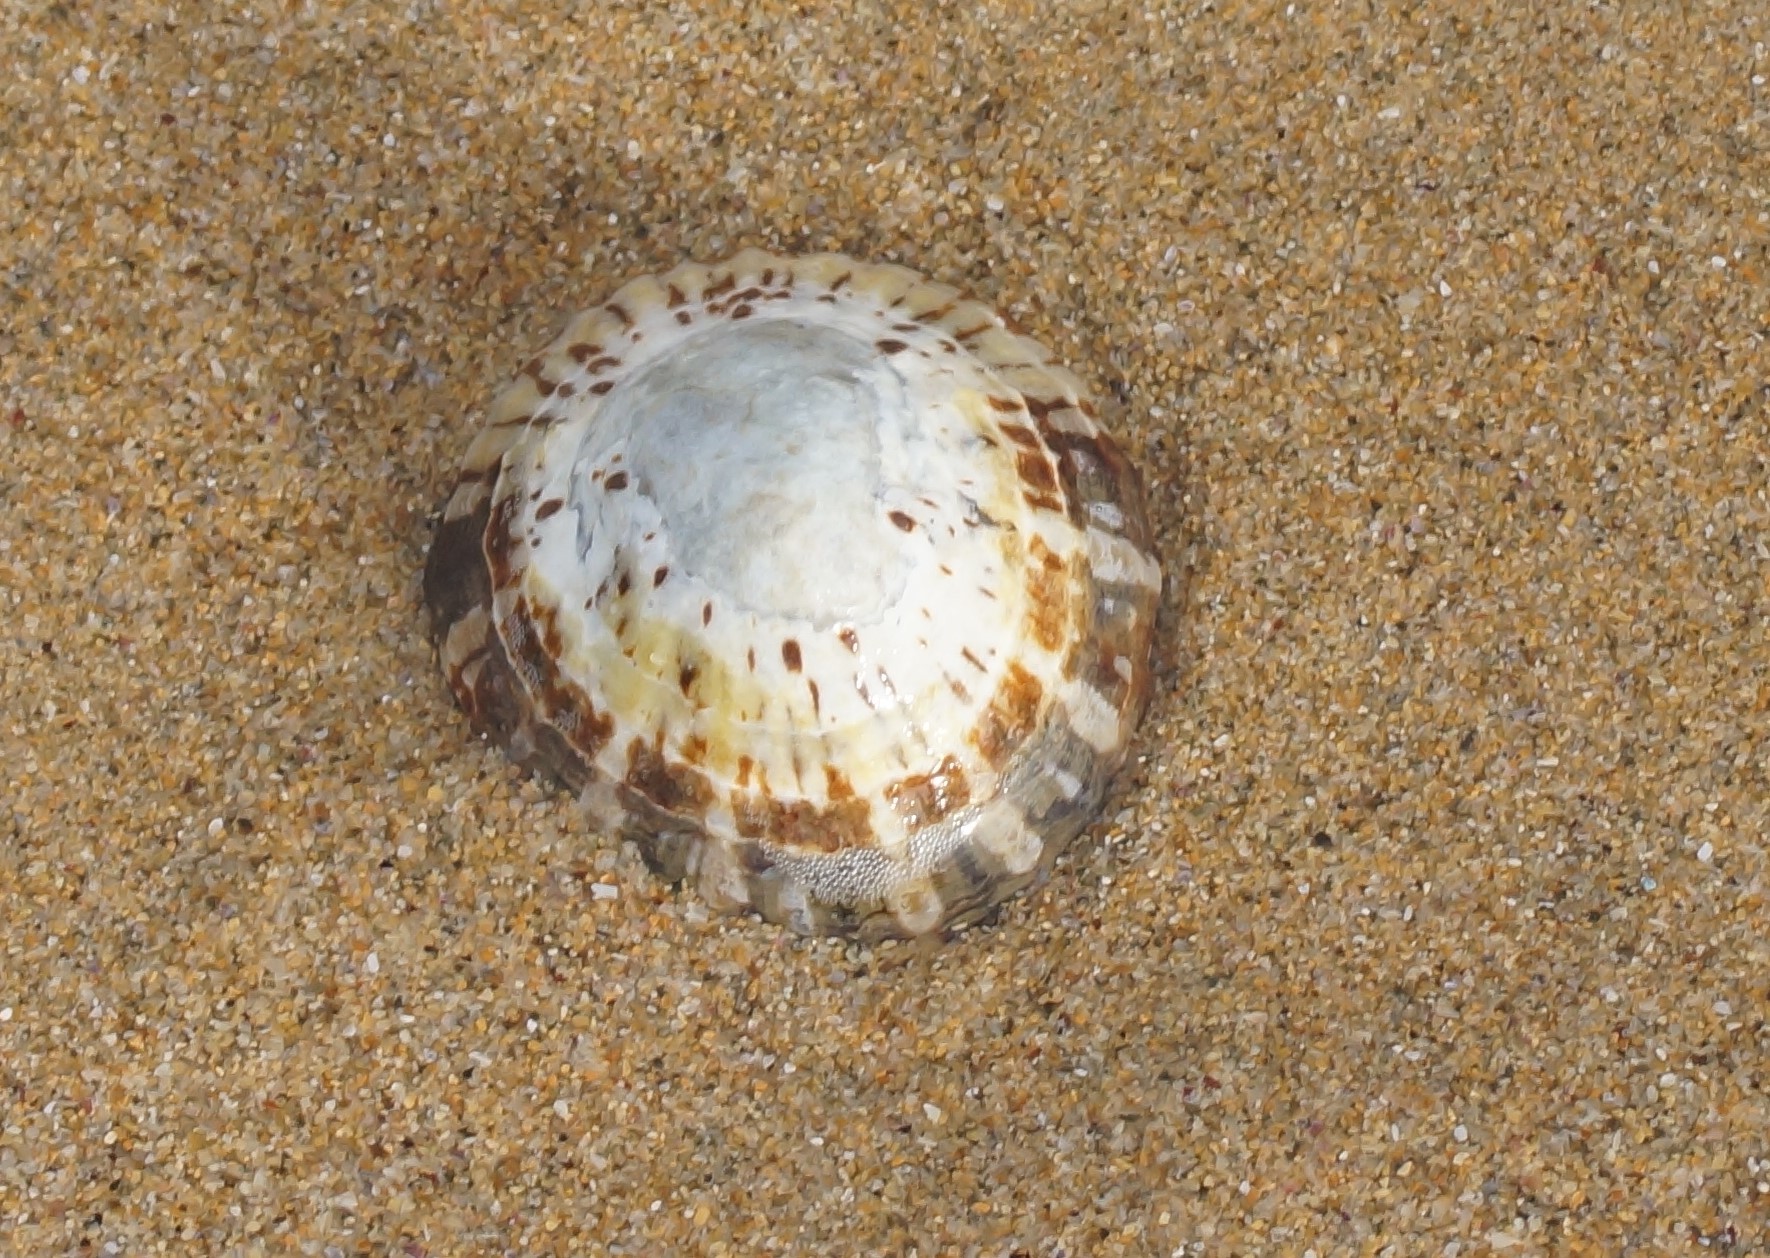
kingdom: Animalia
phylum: Mollusca
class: Gastropoda
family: Nacellidae
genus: Cellana
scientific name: Cellana tramoserica
